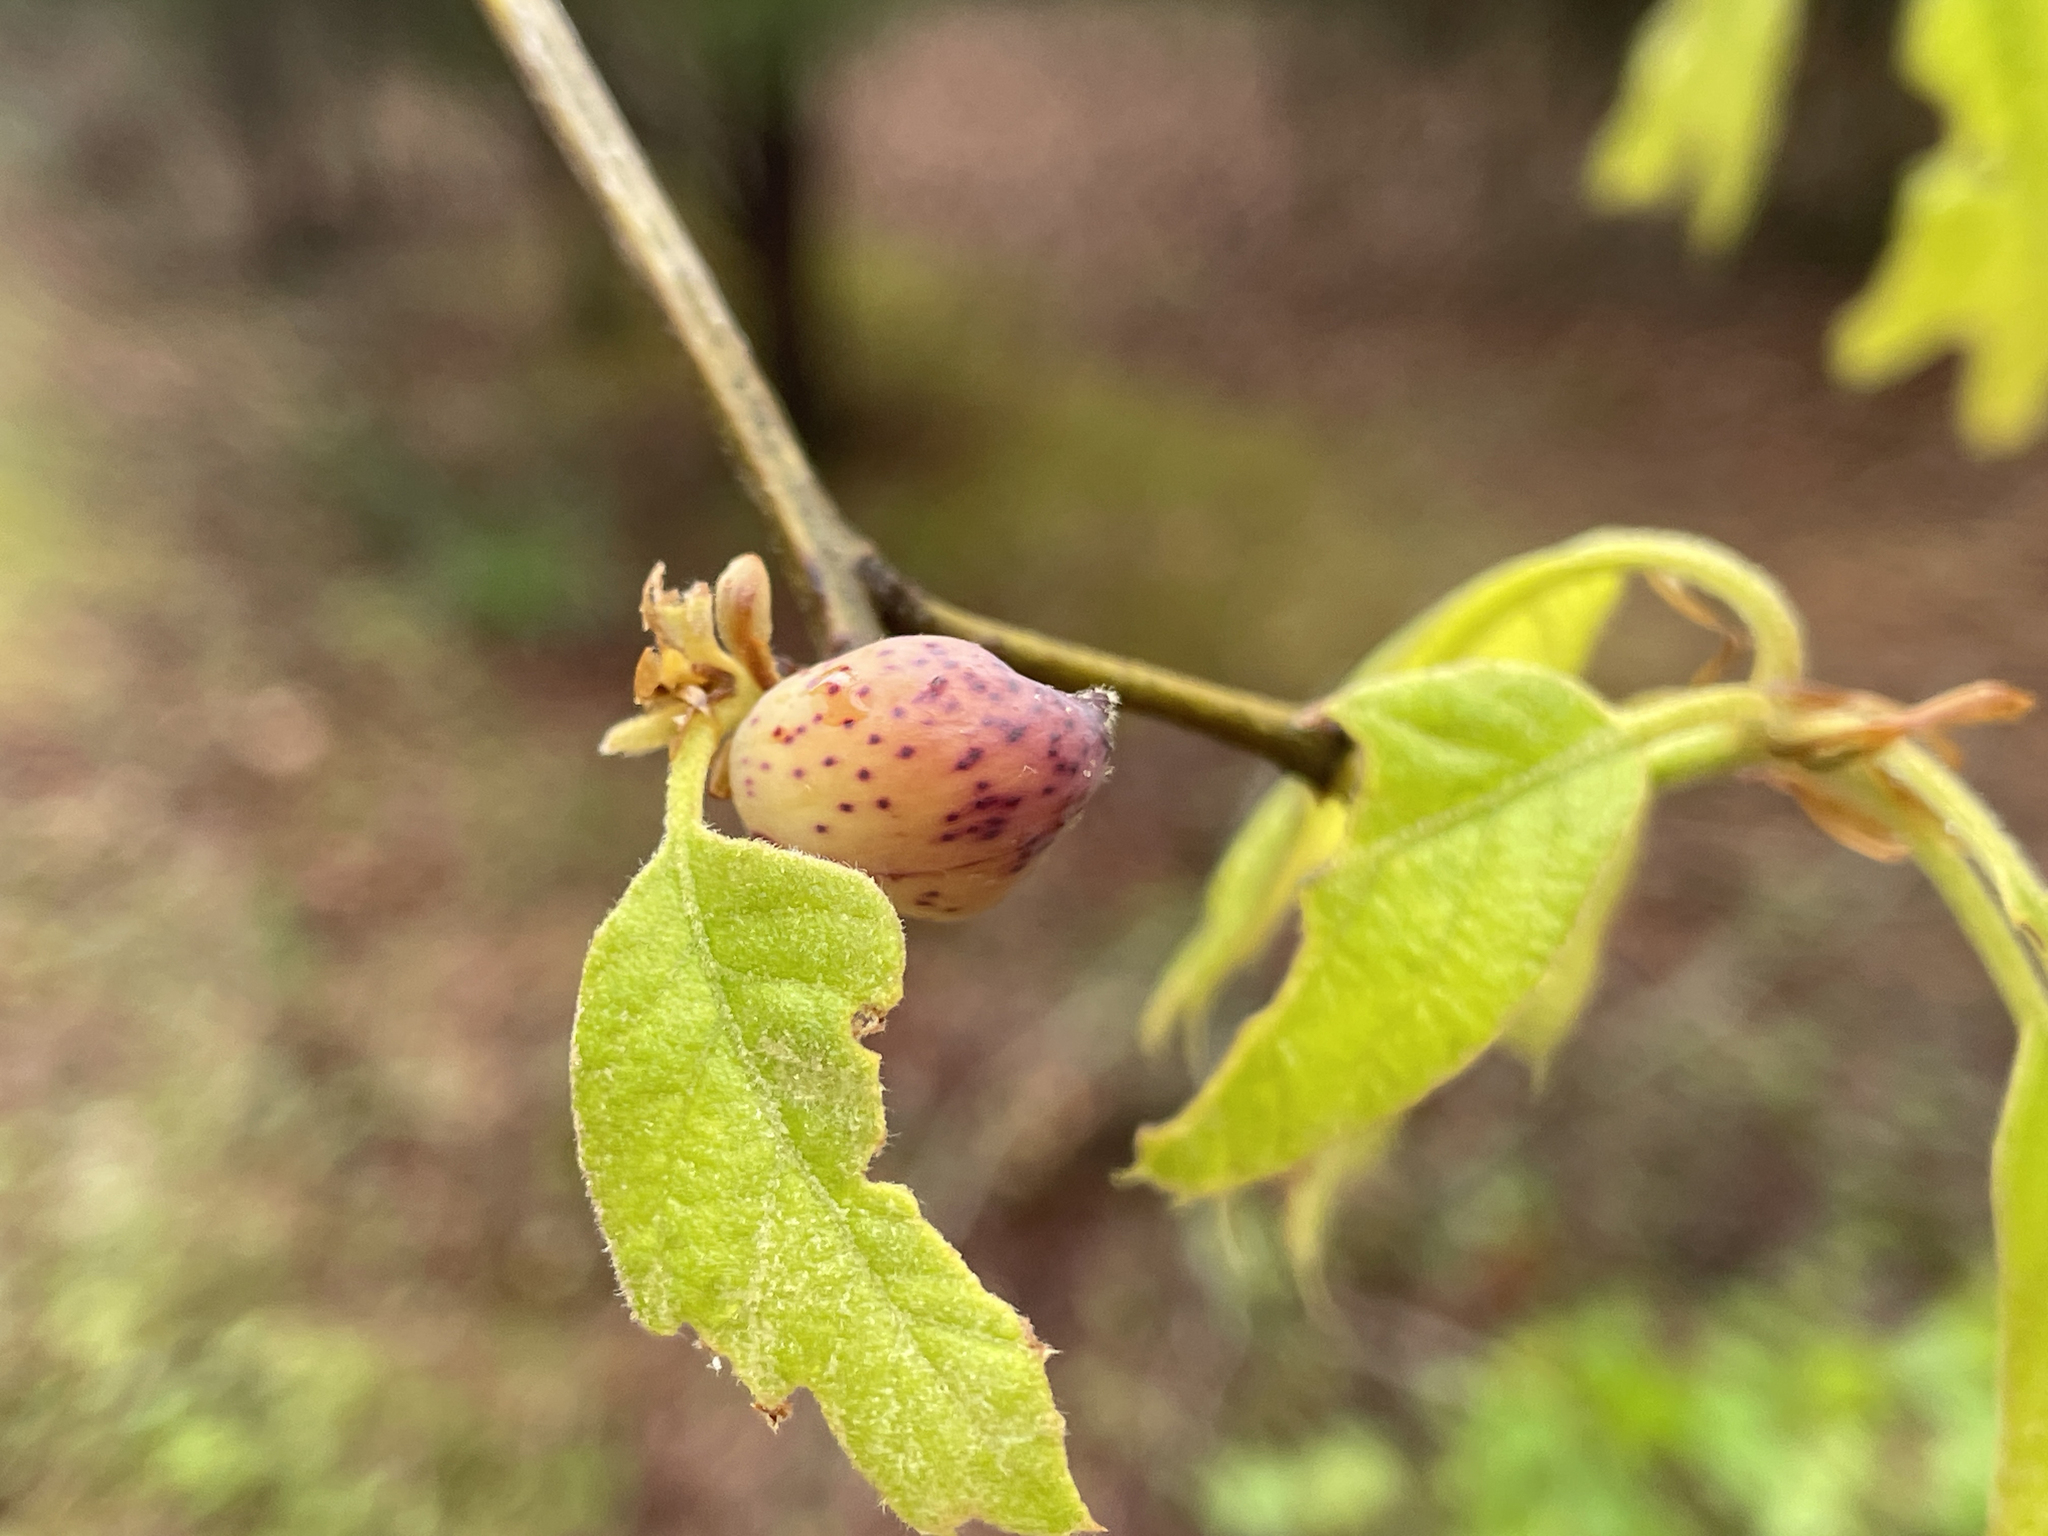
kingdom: Animalia
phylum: Arthropoda
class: Insecta
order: Hymenoptera
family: Cynipidae
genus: Amphibolips
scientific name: Amphibolips
